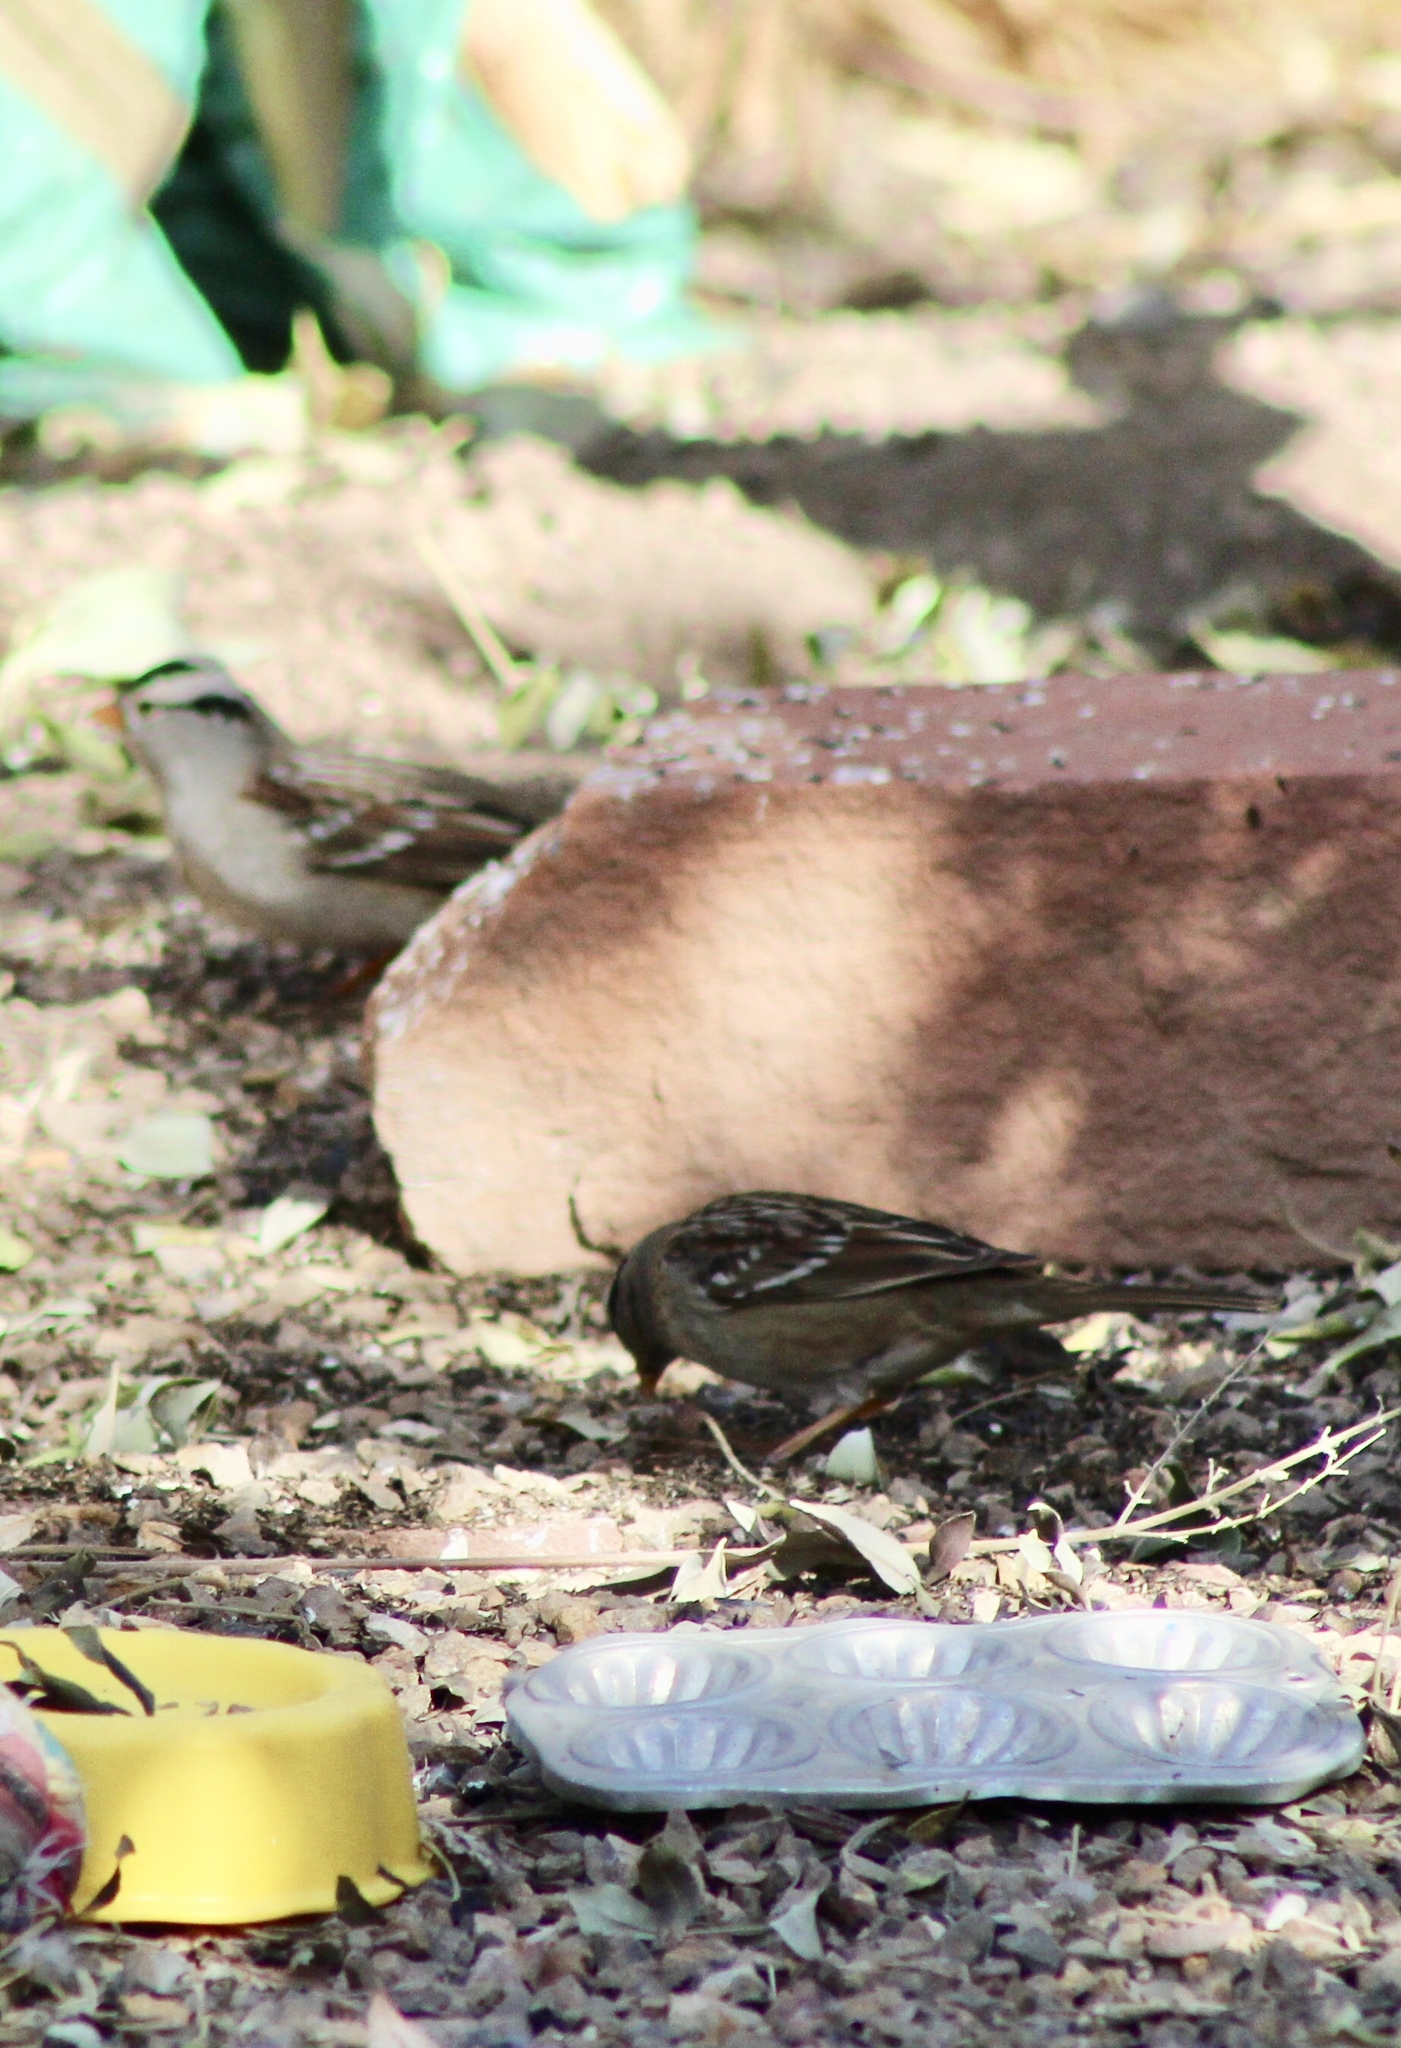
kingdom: Animalia
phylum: Chordata
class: Aves
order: Passeriformes
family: Passerellidae
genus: Zonotrichia
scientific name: Zonotrichia leucophrys
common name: White-crowned sparrow
